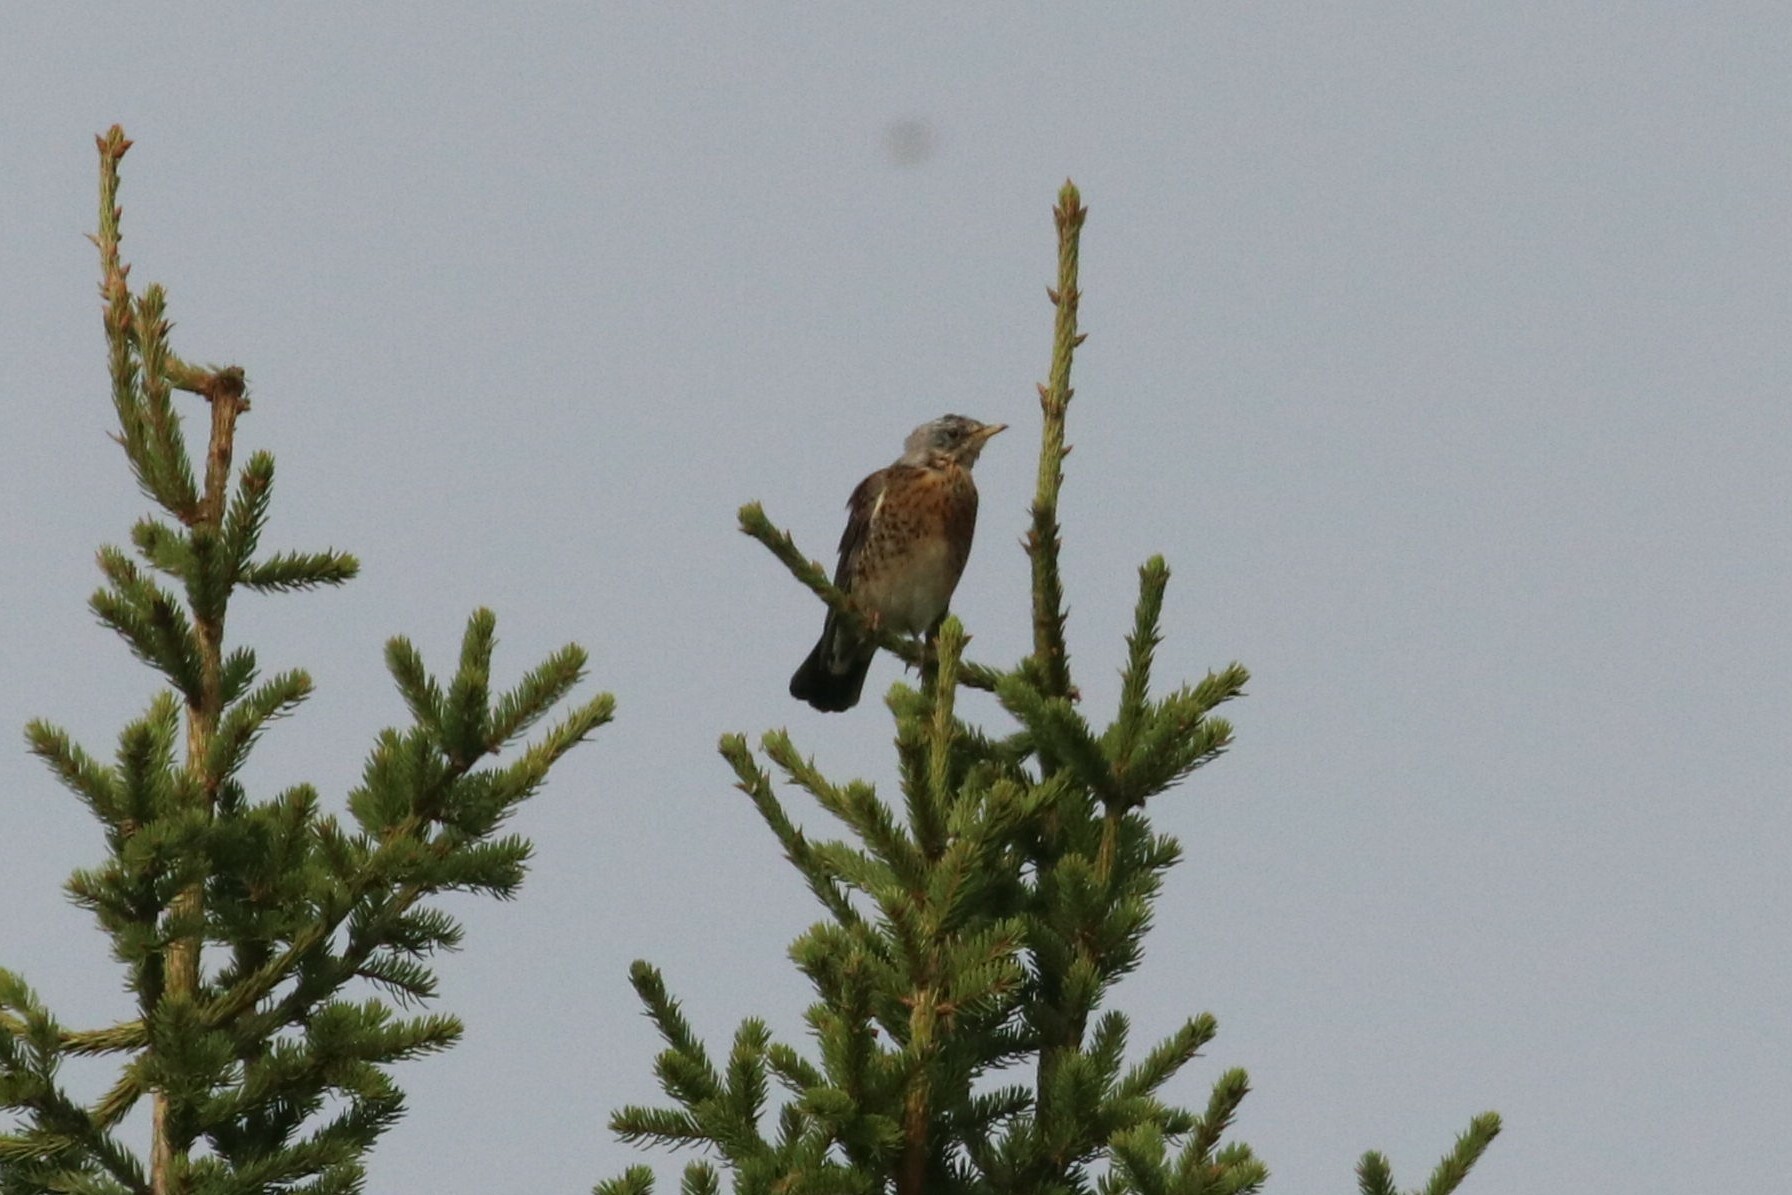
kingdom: Animalia
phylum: Chordata
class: Aves
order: Passeriformes
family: Turdidae
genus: Turdus
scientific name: Turdus pilaris
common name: Fieldfare
